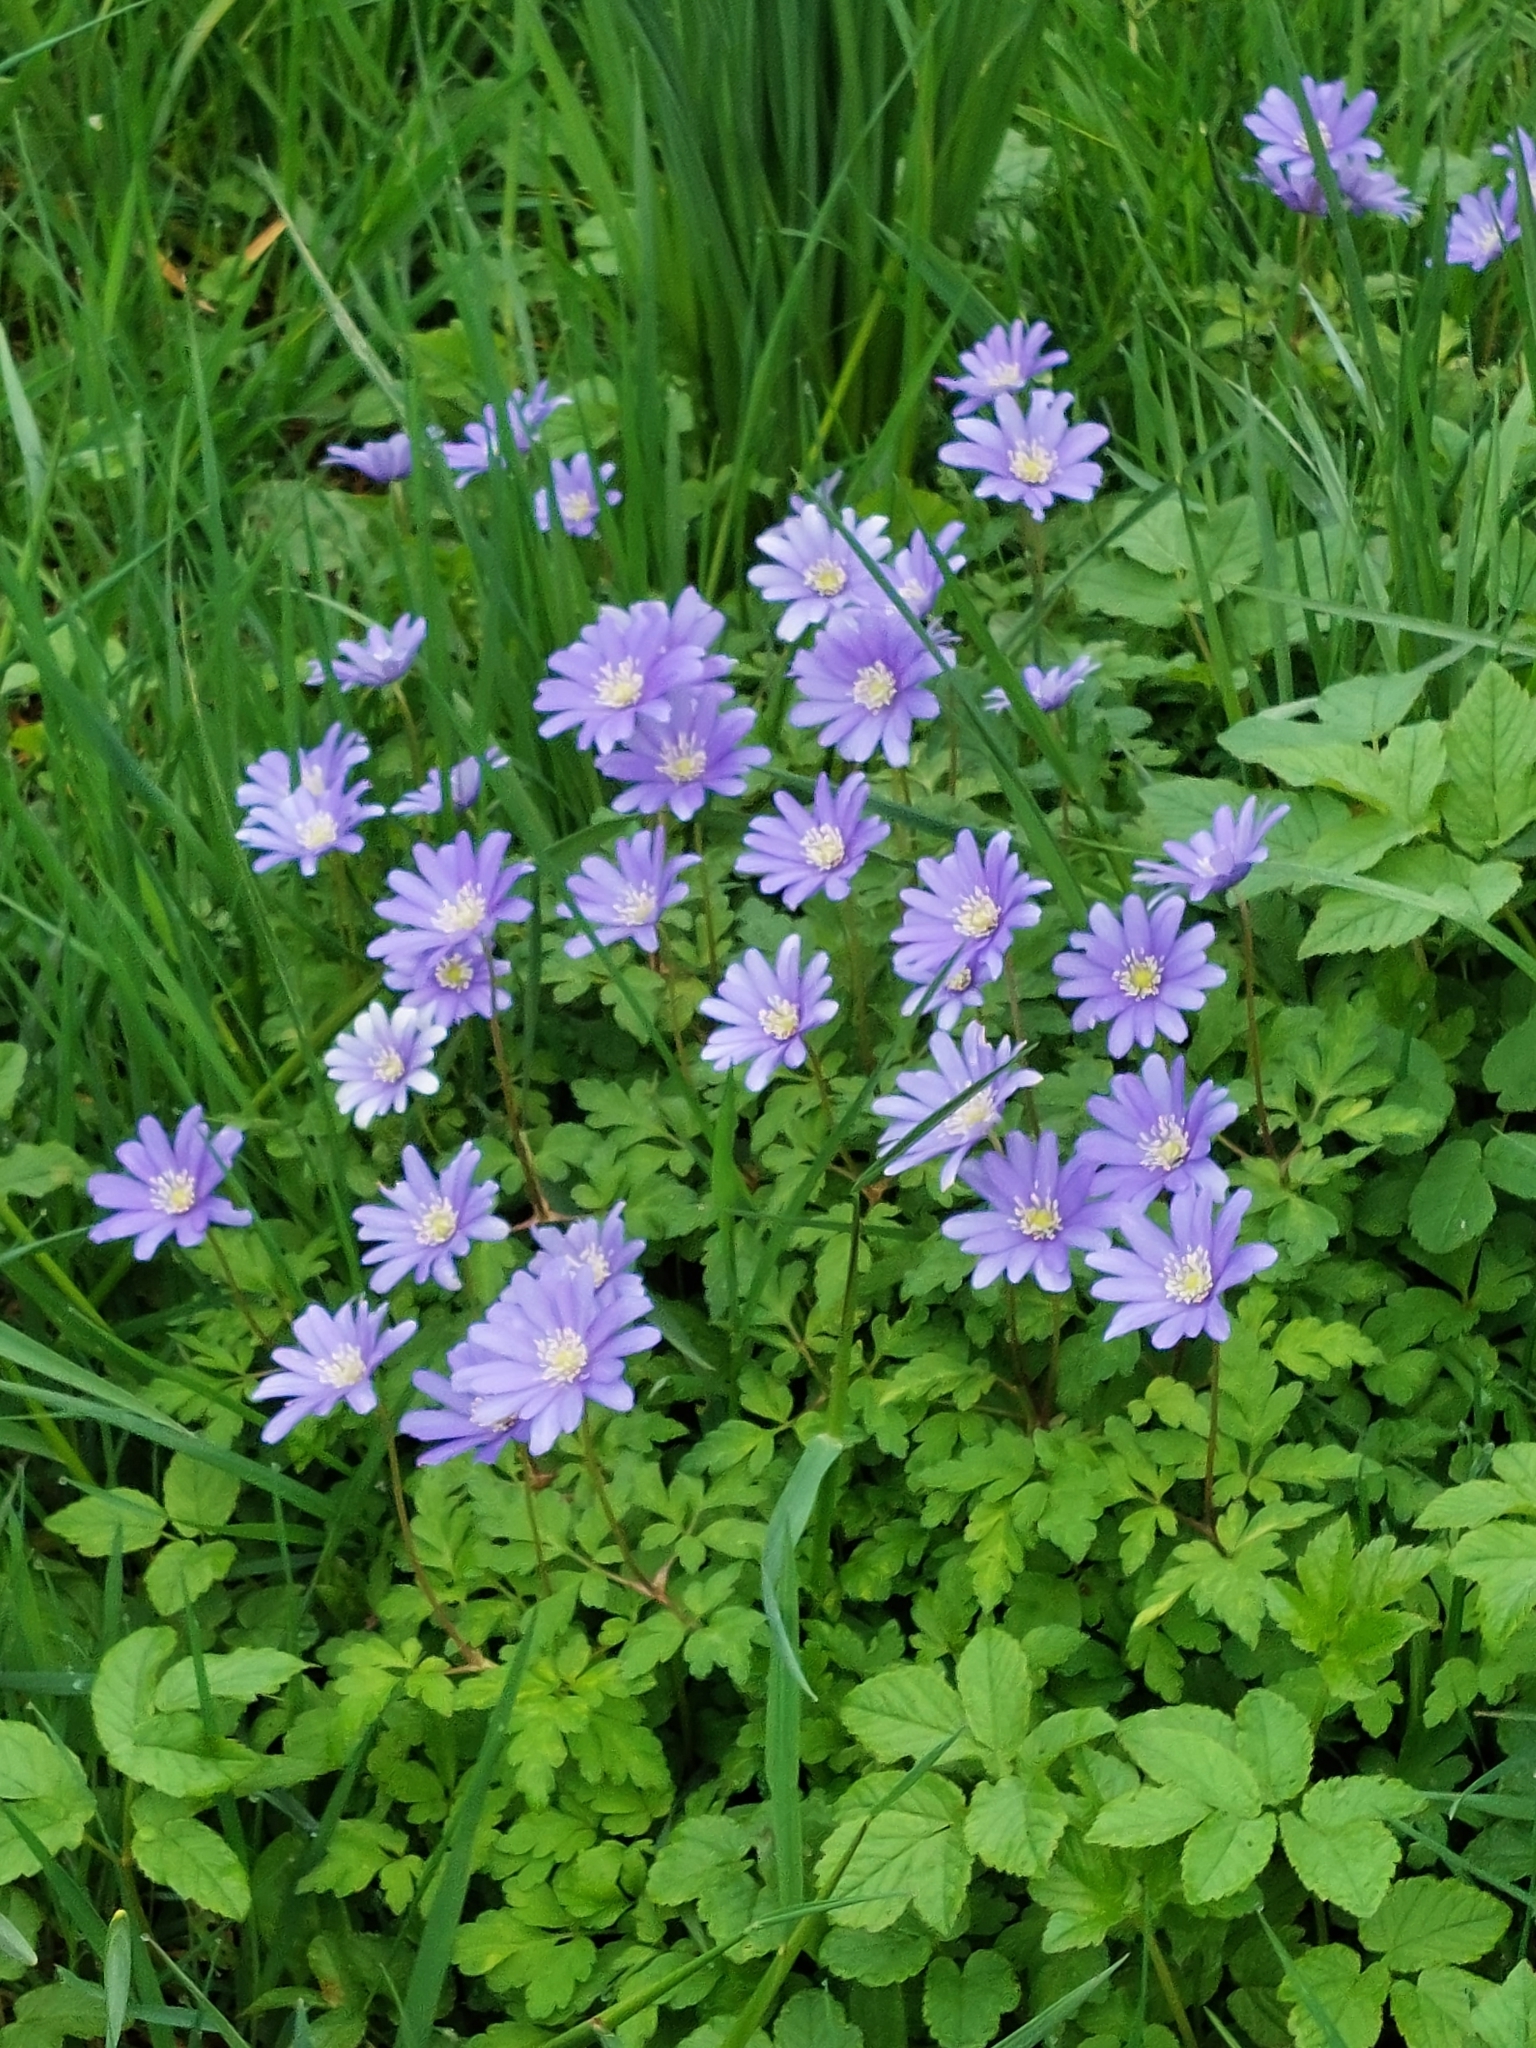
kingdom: Plantae
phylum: Tracheophyta
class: Magnoliopsida
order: Ranunculales
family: Ranunculaceae
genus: Anemone
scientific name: Anemone apennina
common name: Blue anemone
